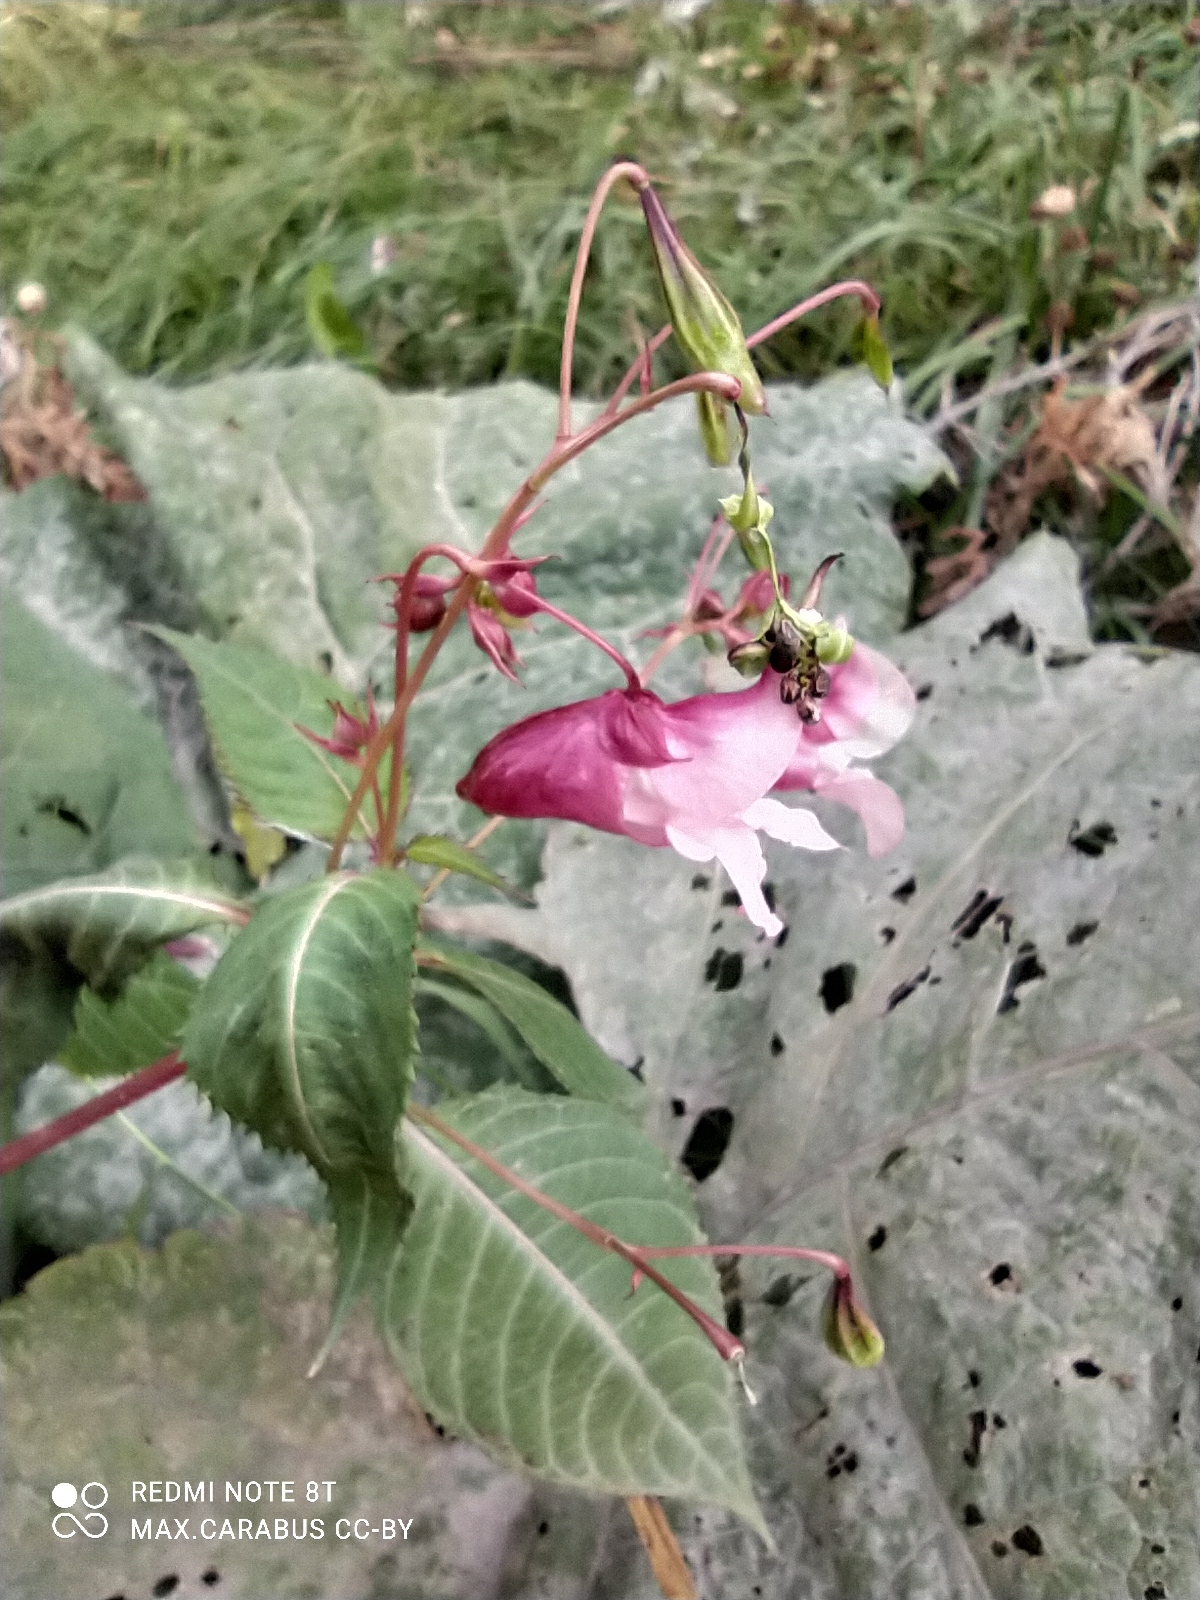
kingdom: Plantae
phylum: Tracheophyta
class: Magnoliopsida
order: Ericales
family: Balsaminaceae
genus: Impatiens
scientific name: Impatiens glandulifera
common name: Himalayan balsam
